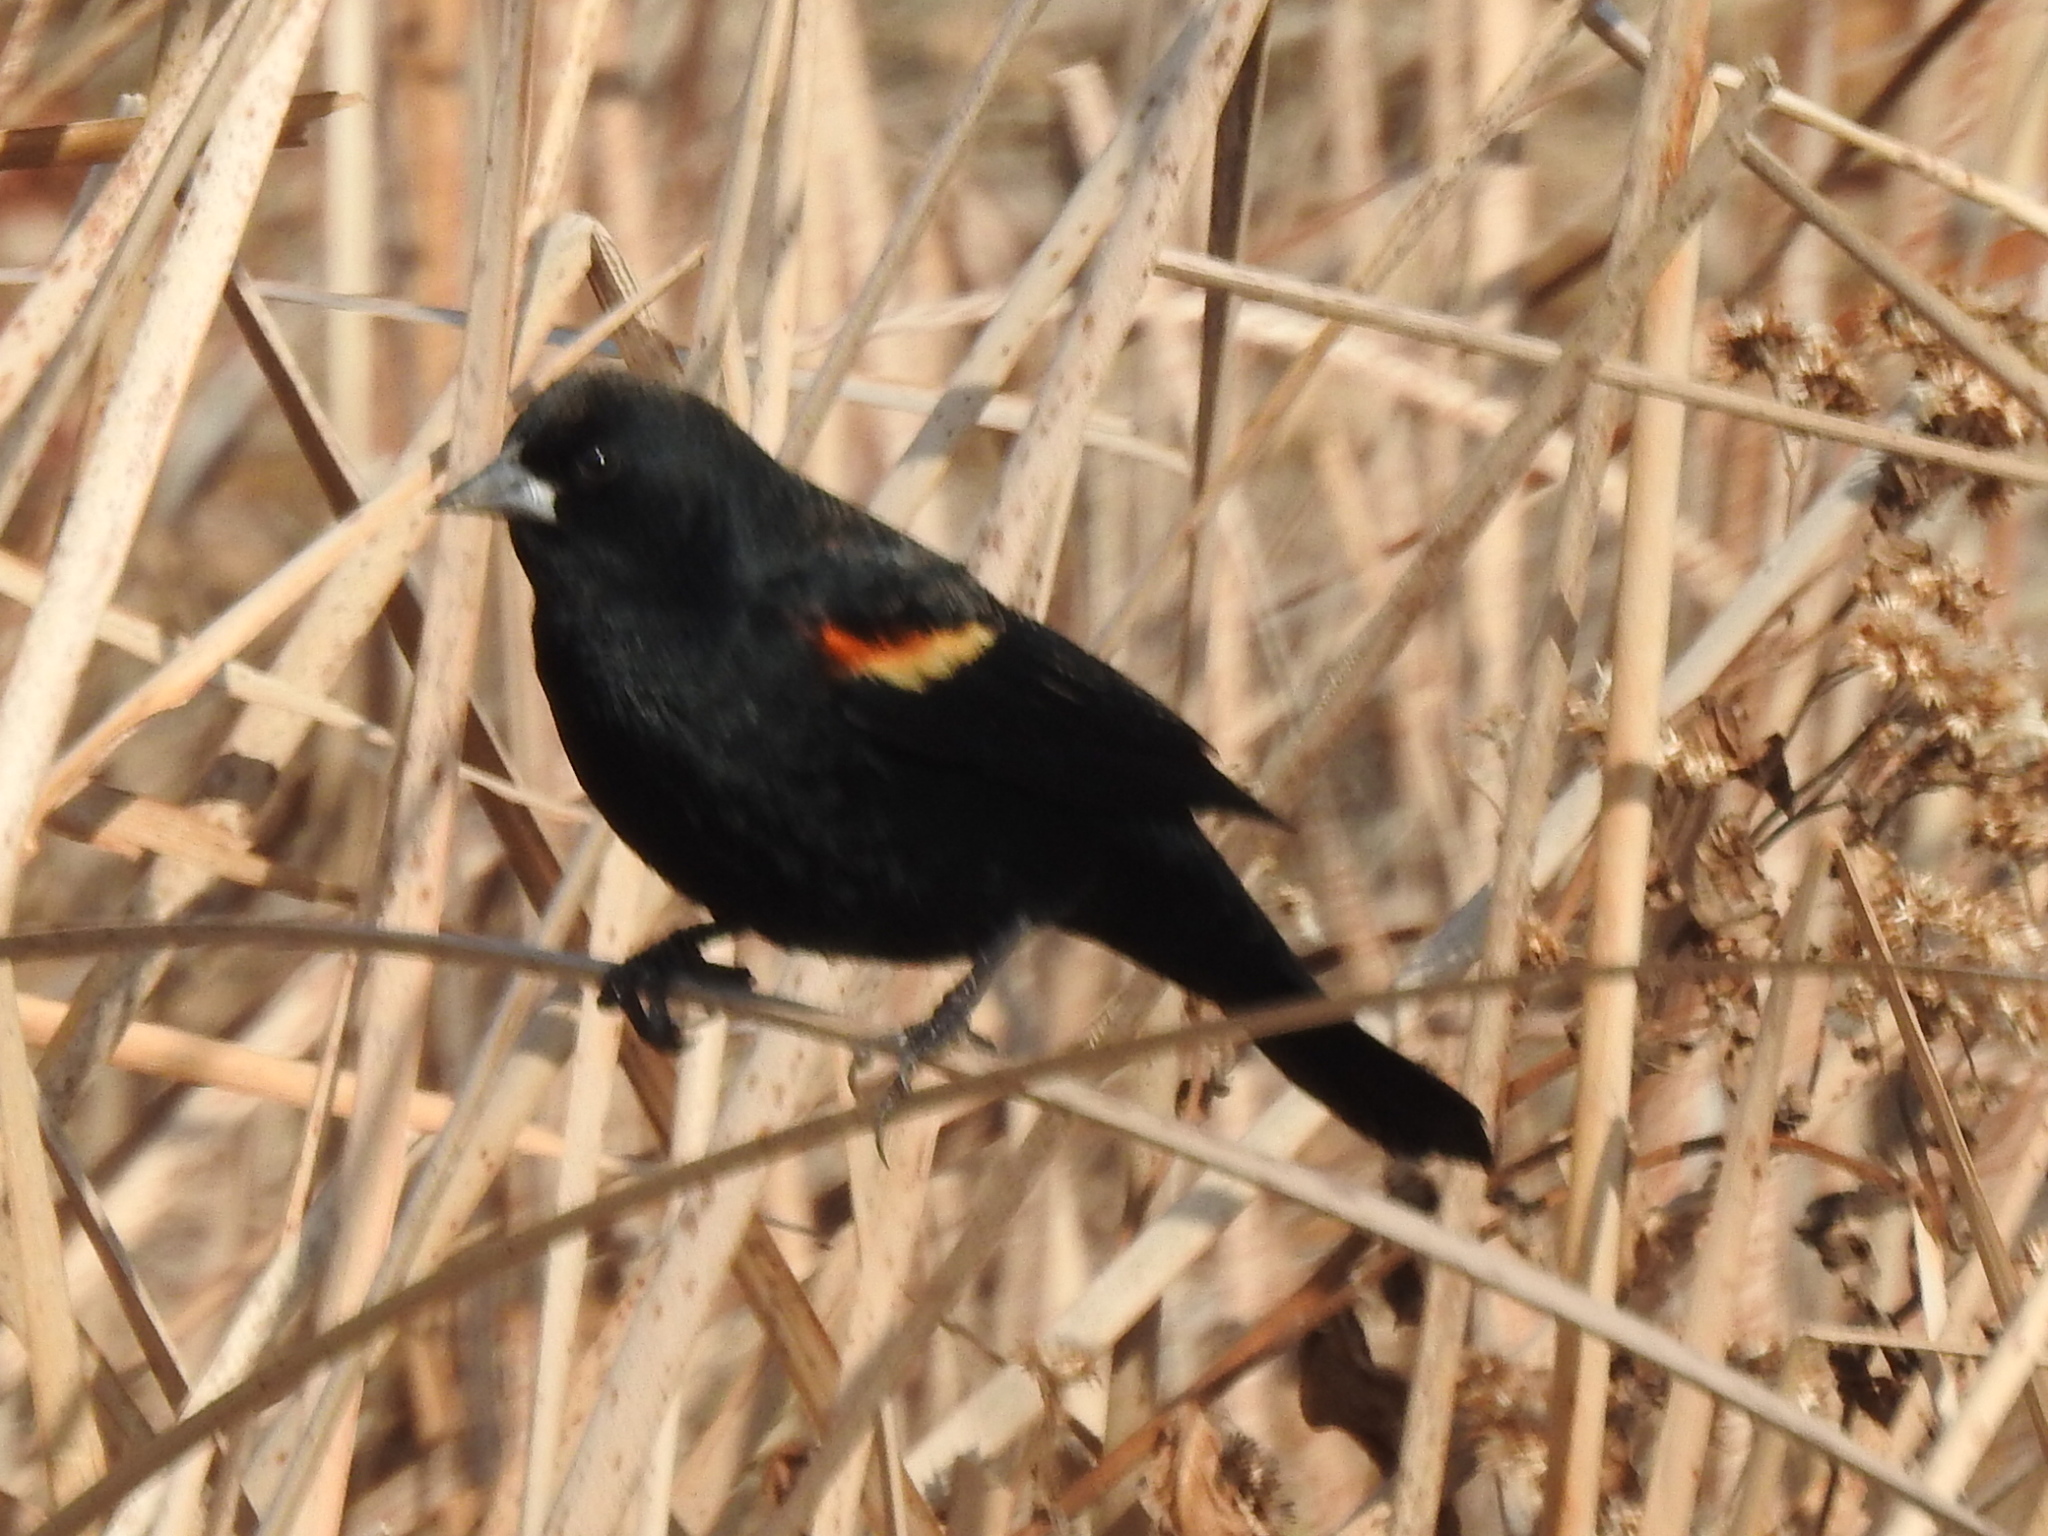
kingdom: Animalia
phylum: Chordata
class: Aves
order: Passeriformes
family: Icteridae
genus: Agelaius
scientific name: Agelaius phoeniceus
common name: Red-winged blackbird
